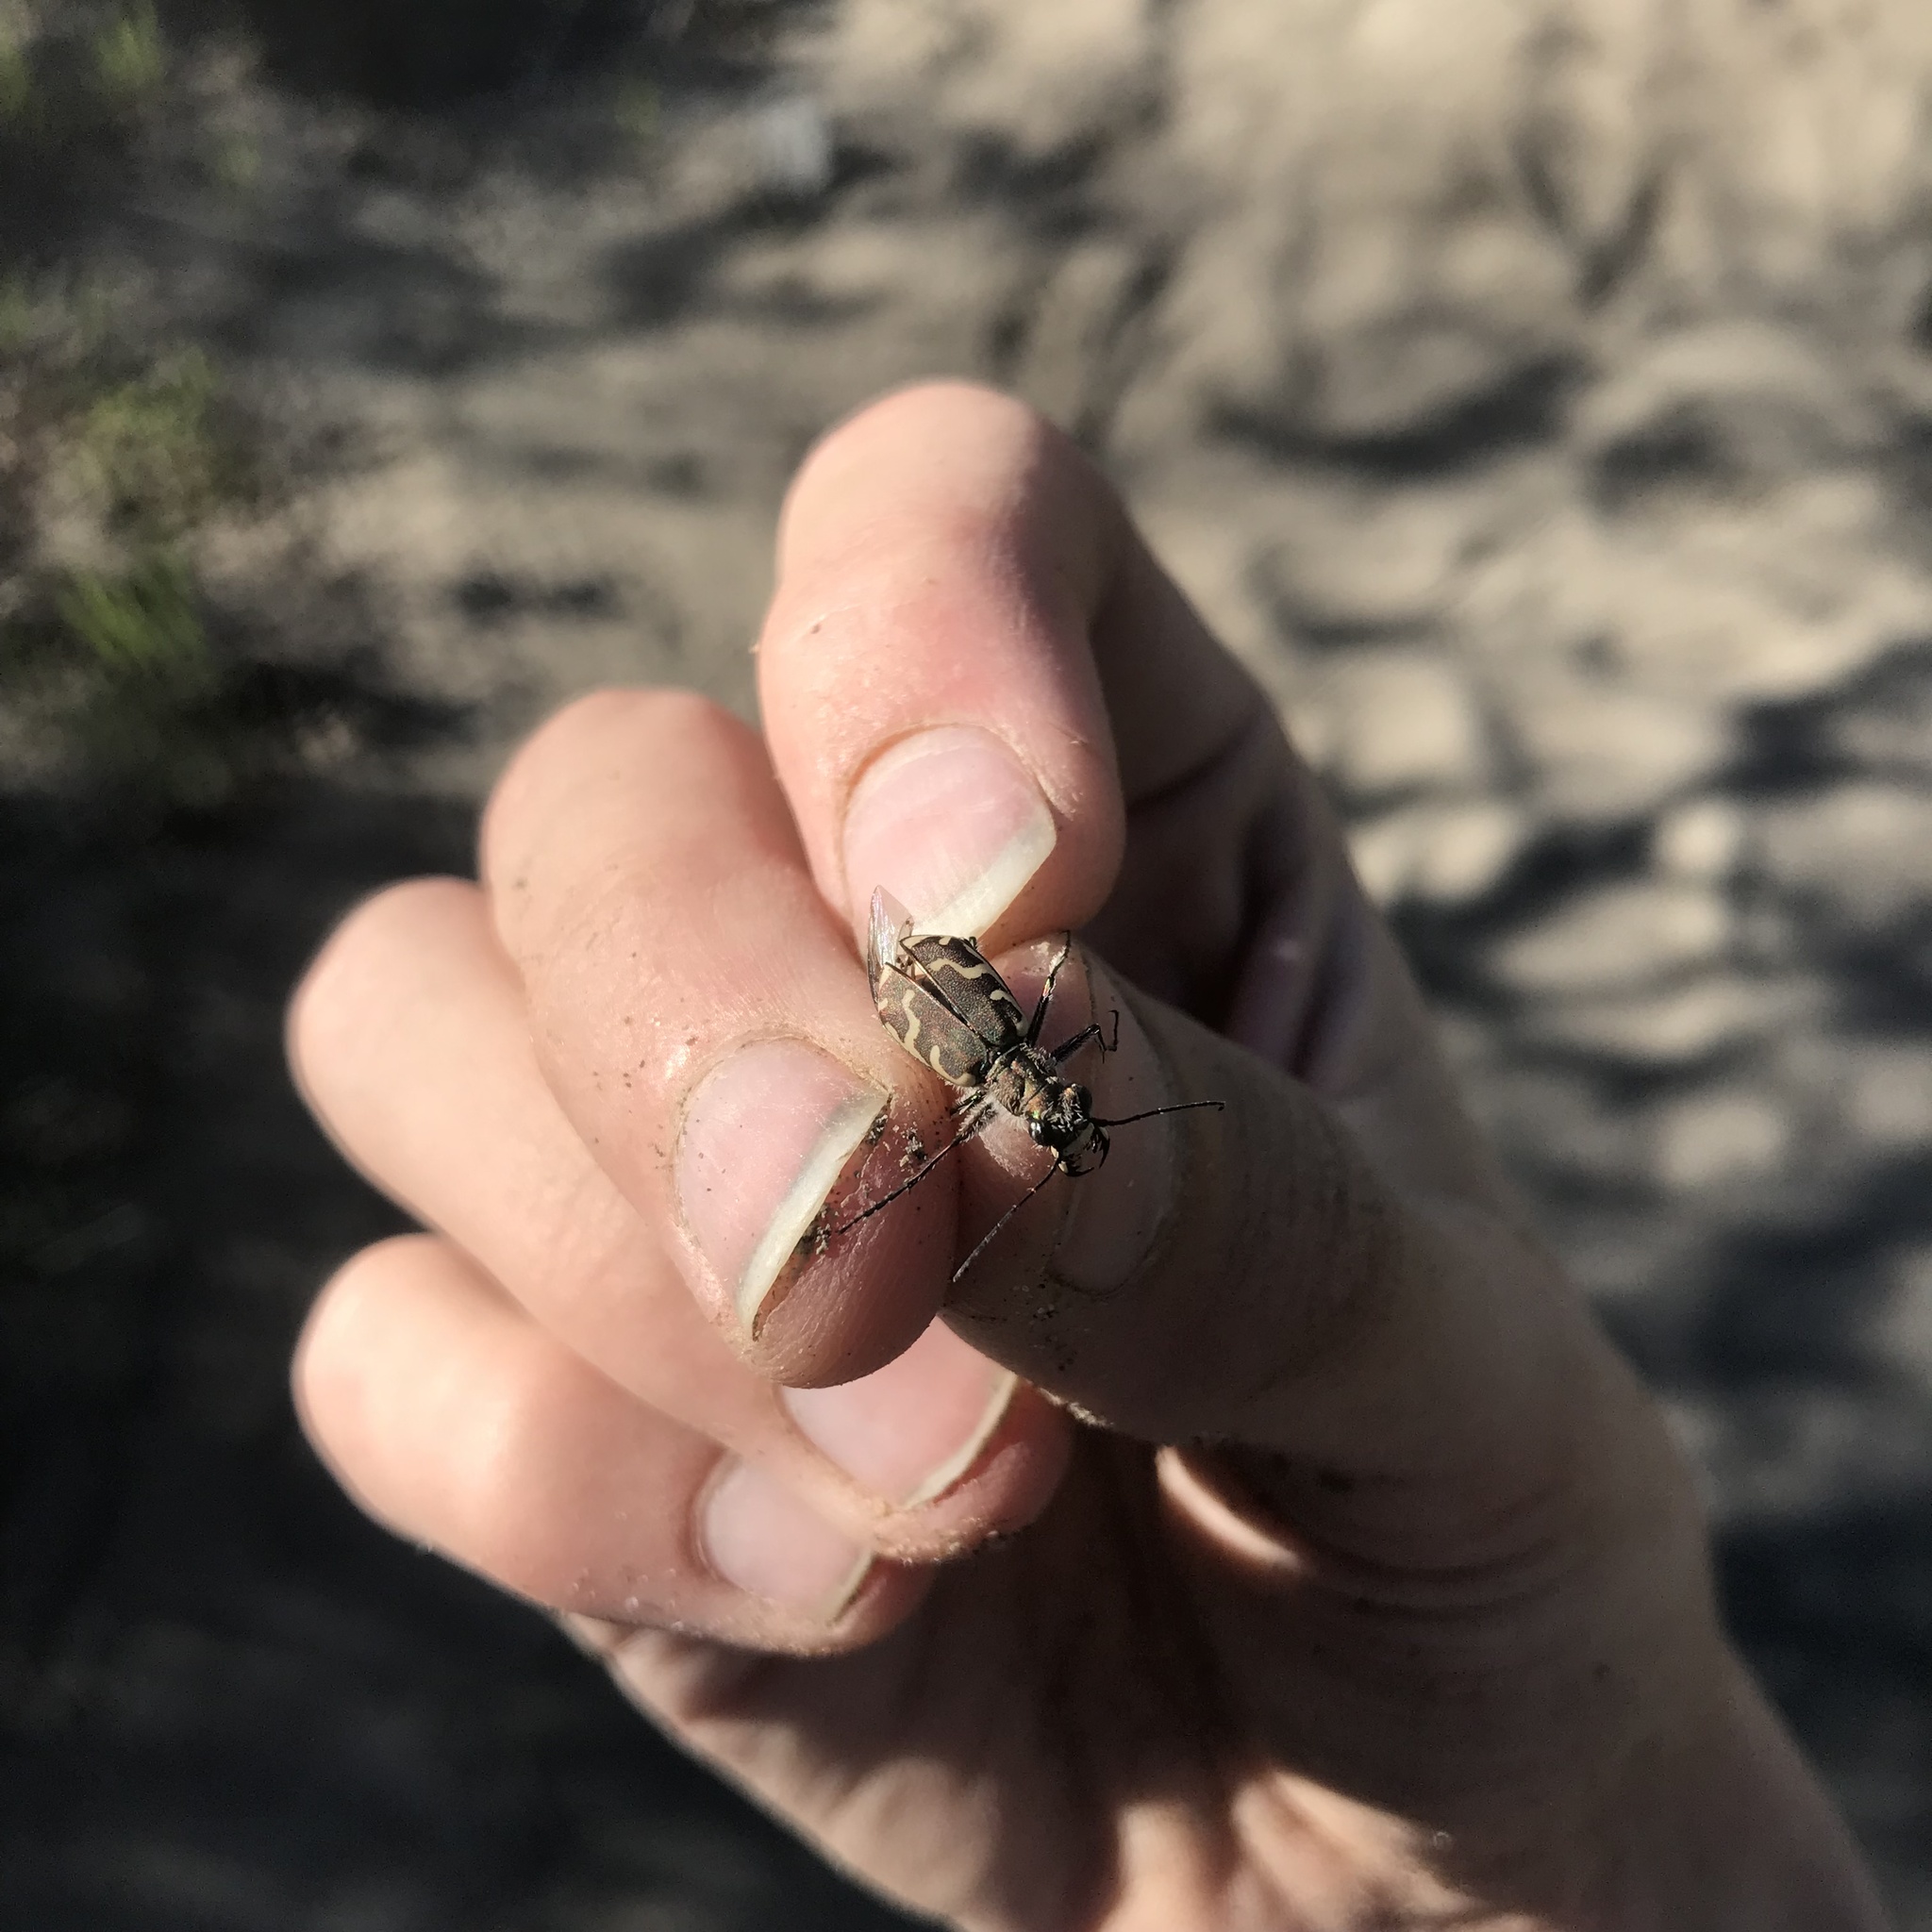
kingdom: Animalia
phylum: Arthropoda
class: Insecta
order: Coleoptera
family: Carabidae
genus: Cicindela
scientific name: Cicindela repanda
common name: Bronzed tiger beetle
